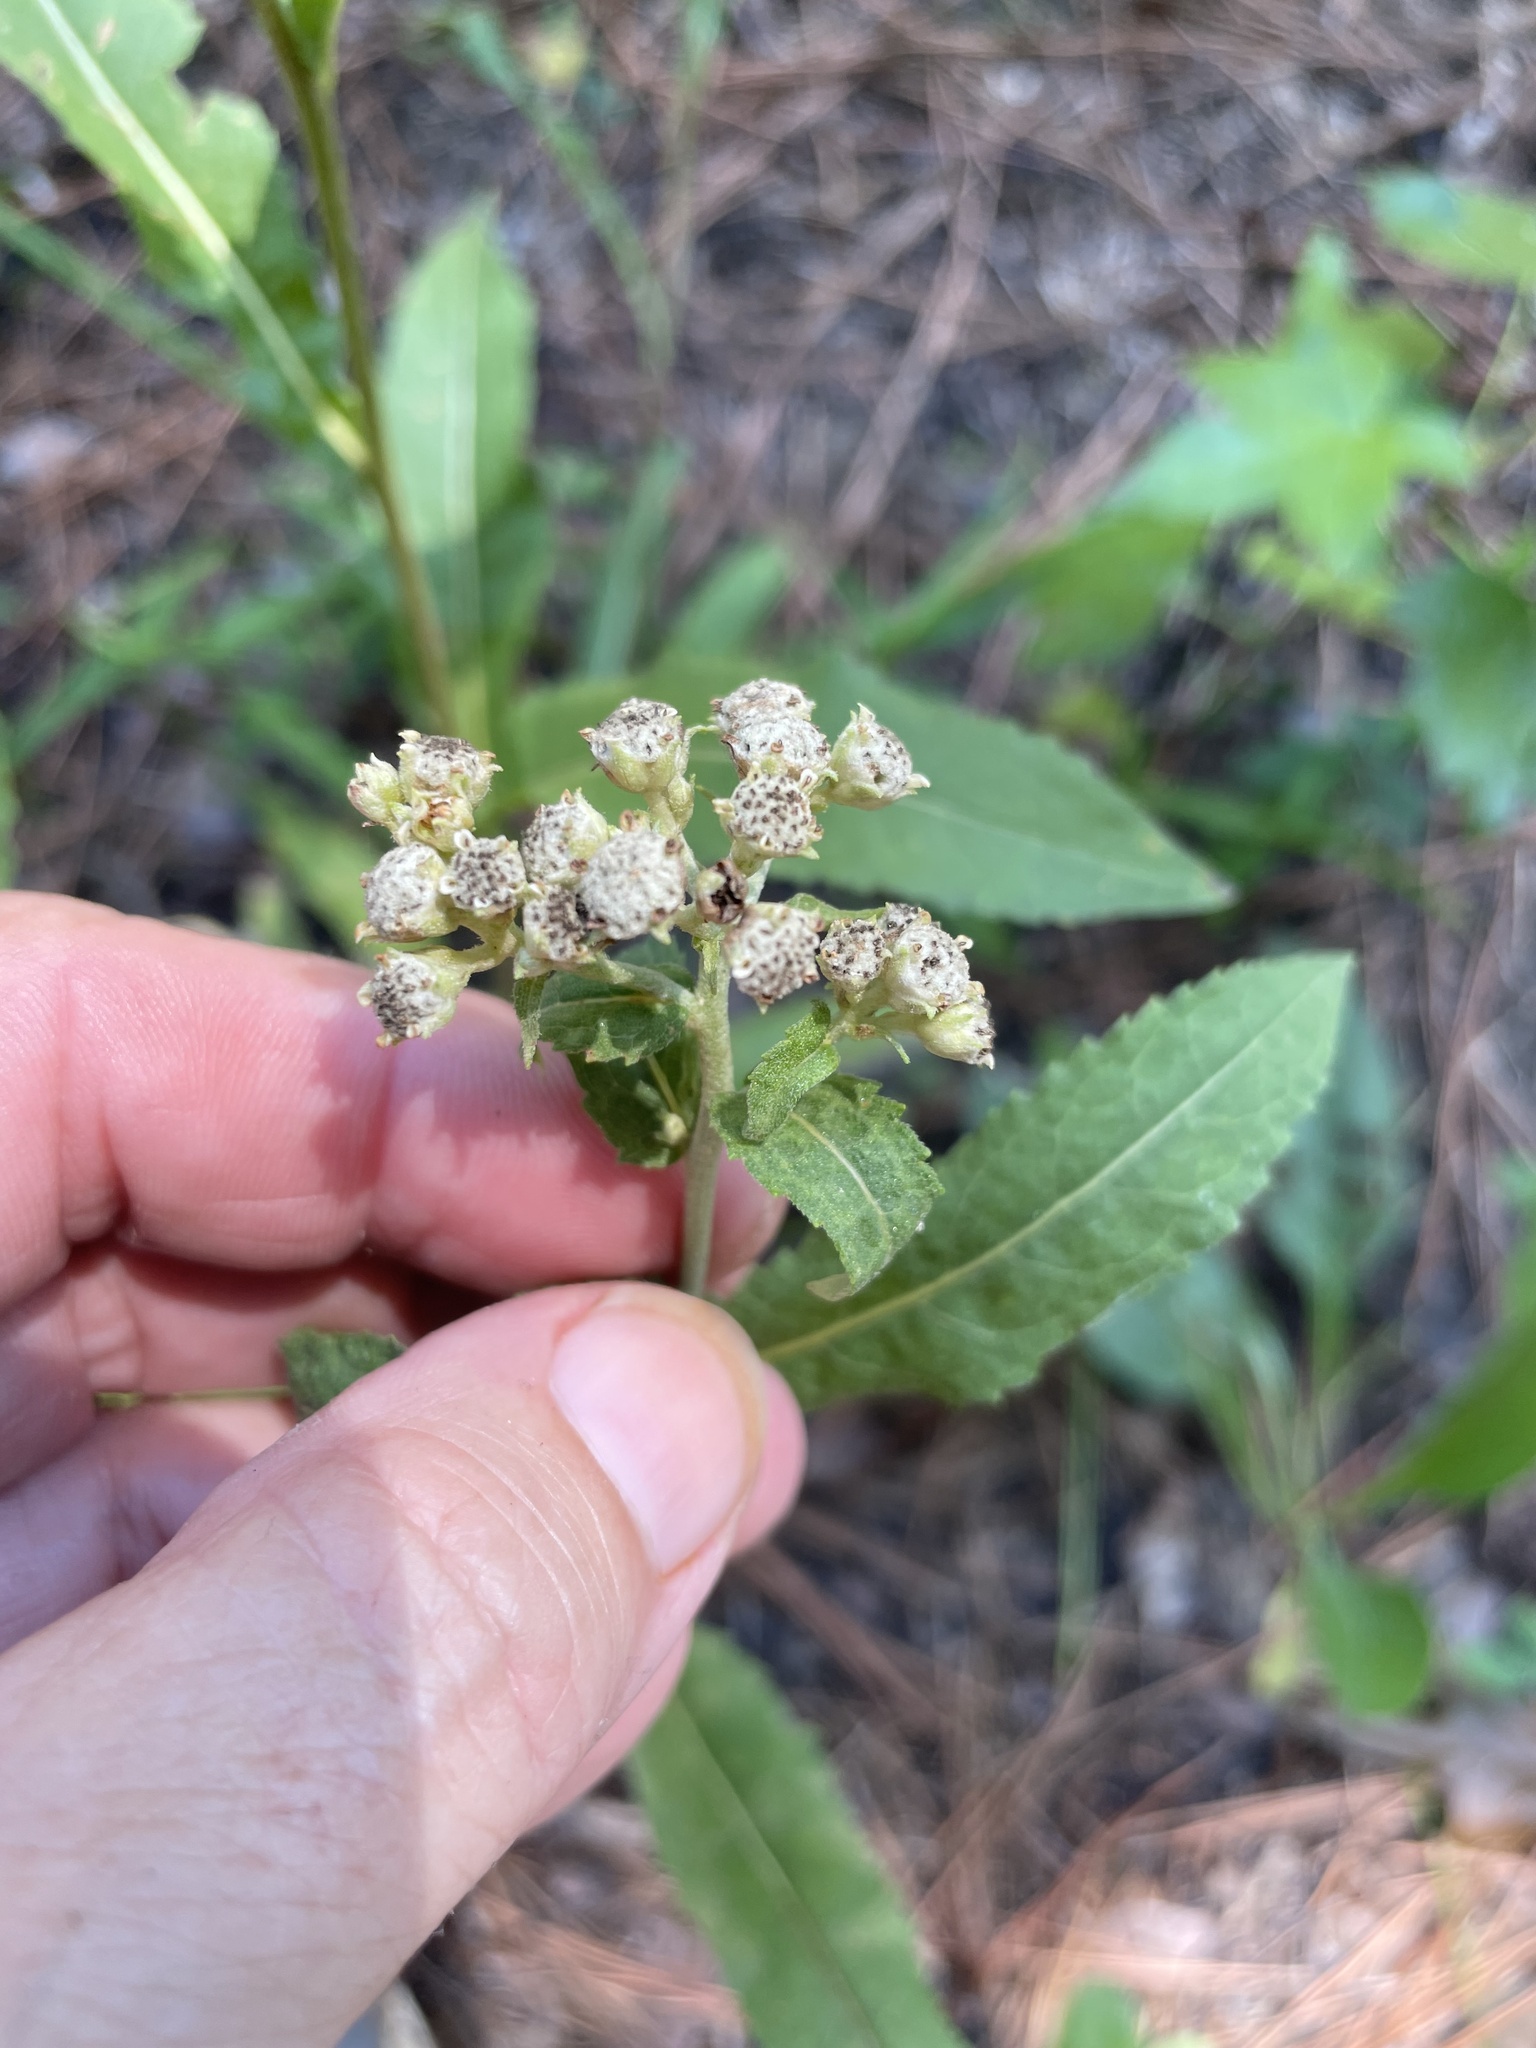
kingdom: Plantae
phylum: Tracheophyta
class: Magnoliopsida
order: Asterales
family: Asteraceae
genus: Parthenium
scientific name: Parthenium integrifolium
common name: American feverfew
